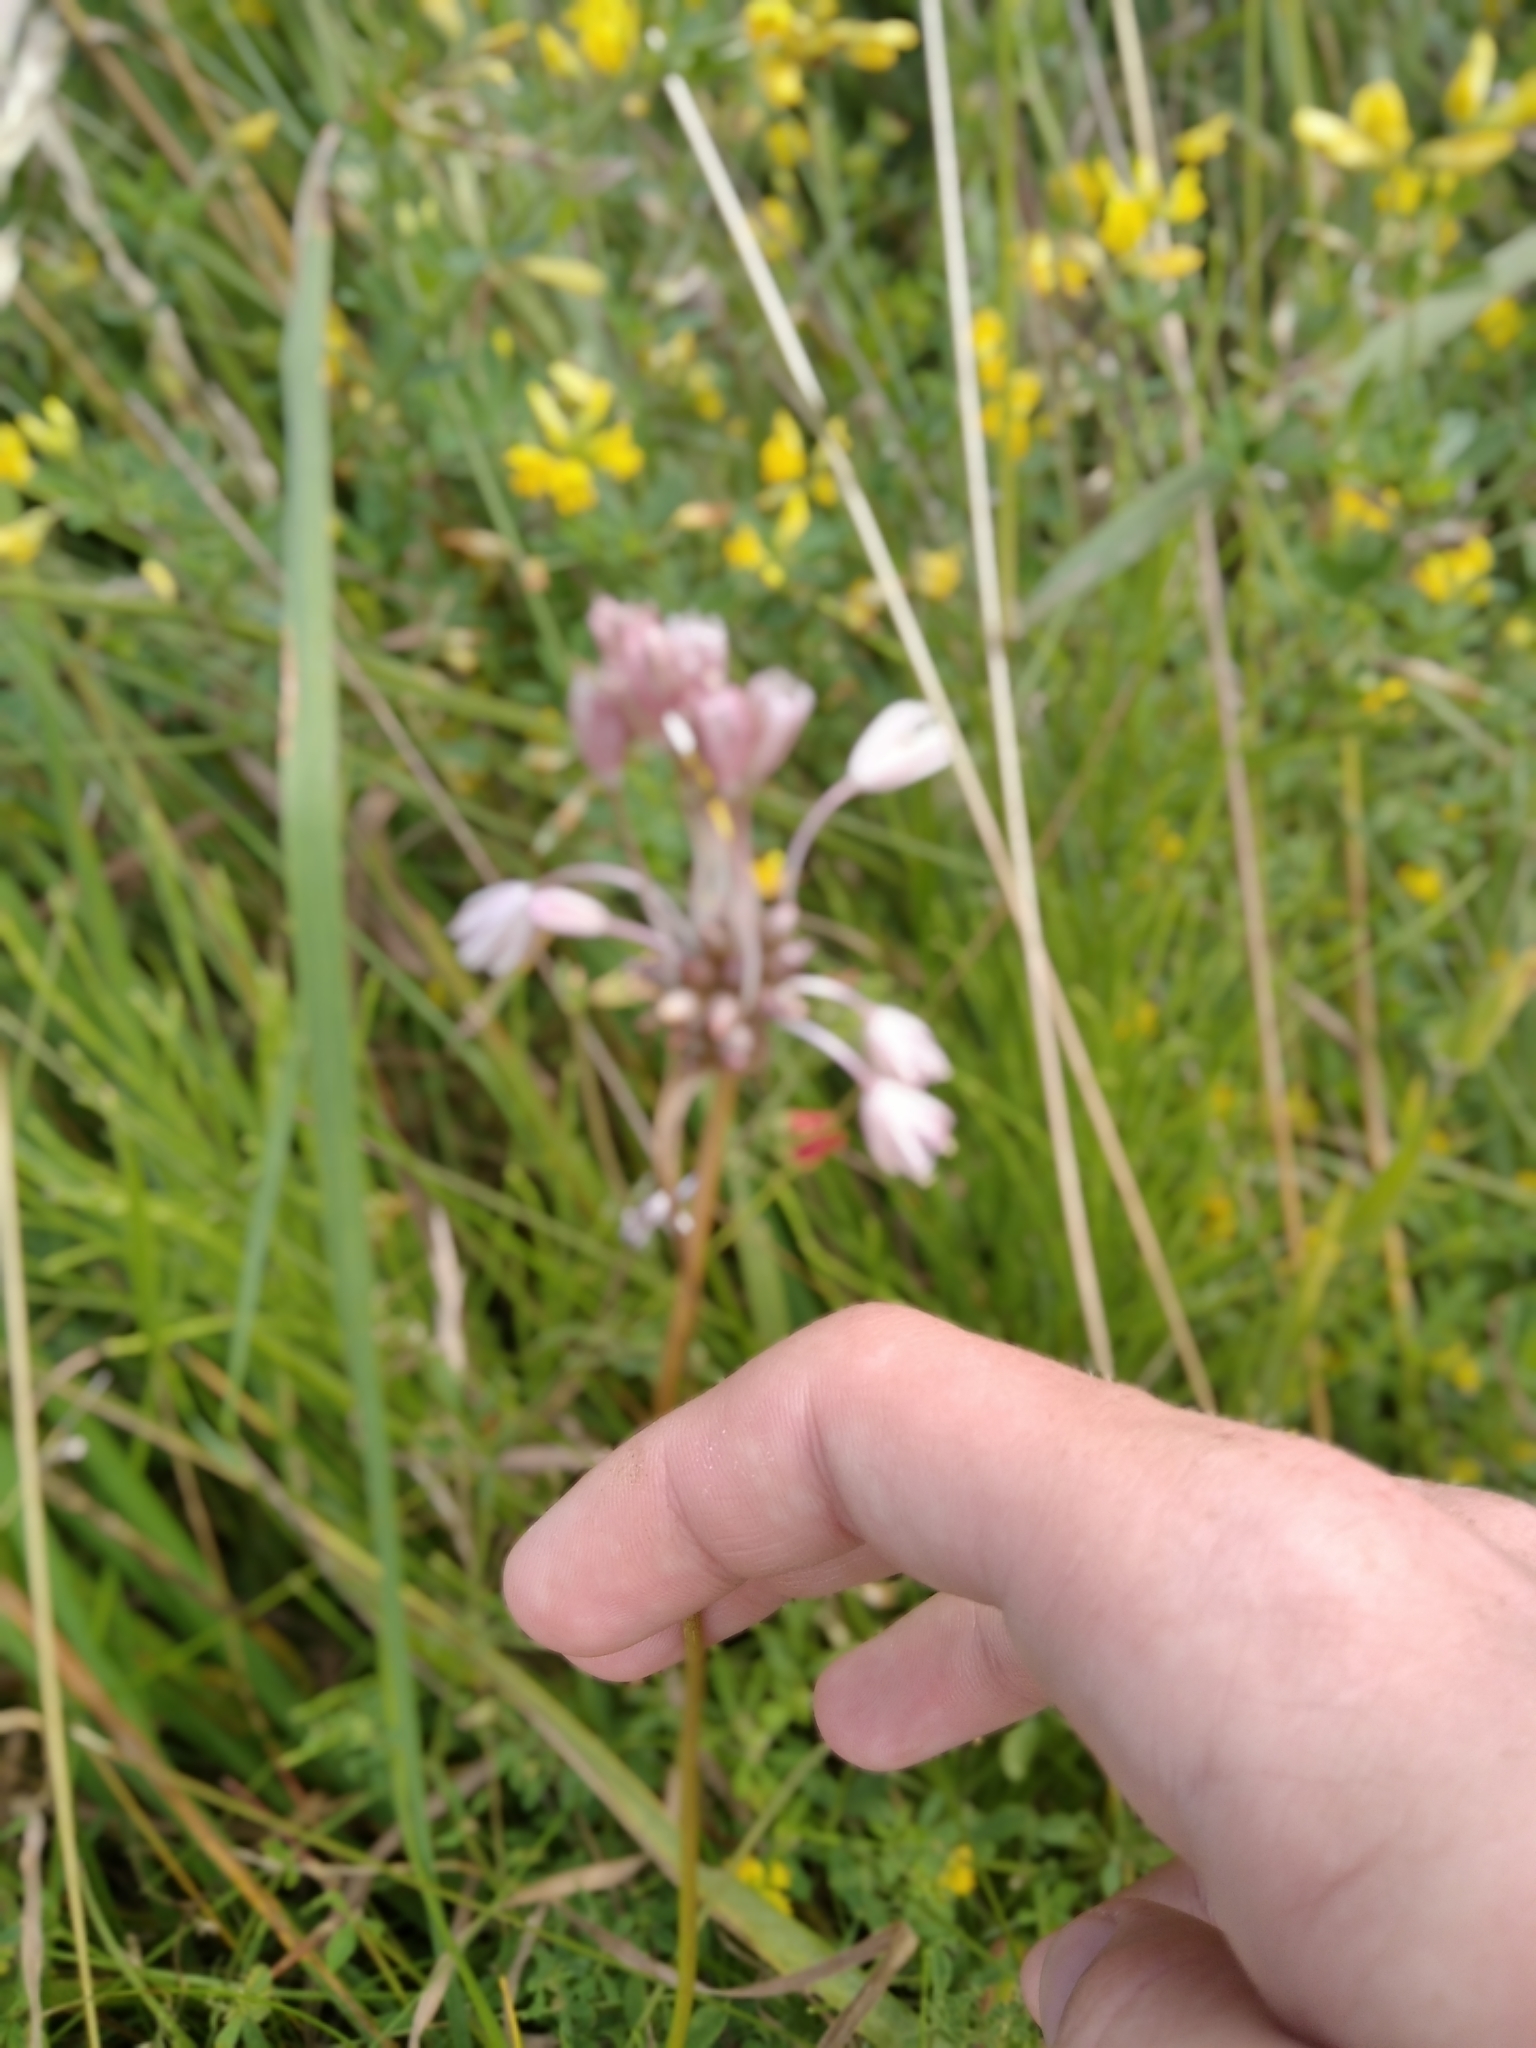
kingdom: Plantae
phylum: Tracheophyta
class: Liliopsida
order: Asparagales
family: Amaryllidaceae
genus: Allium
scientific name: Allium oleraceum
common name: Field garlic
